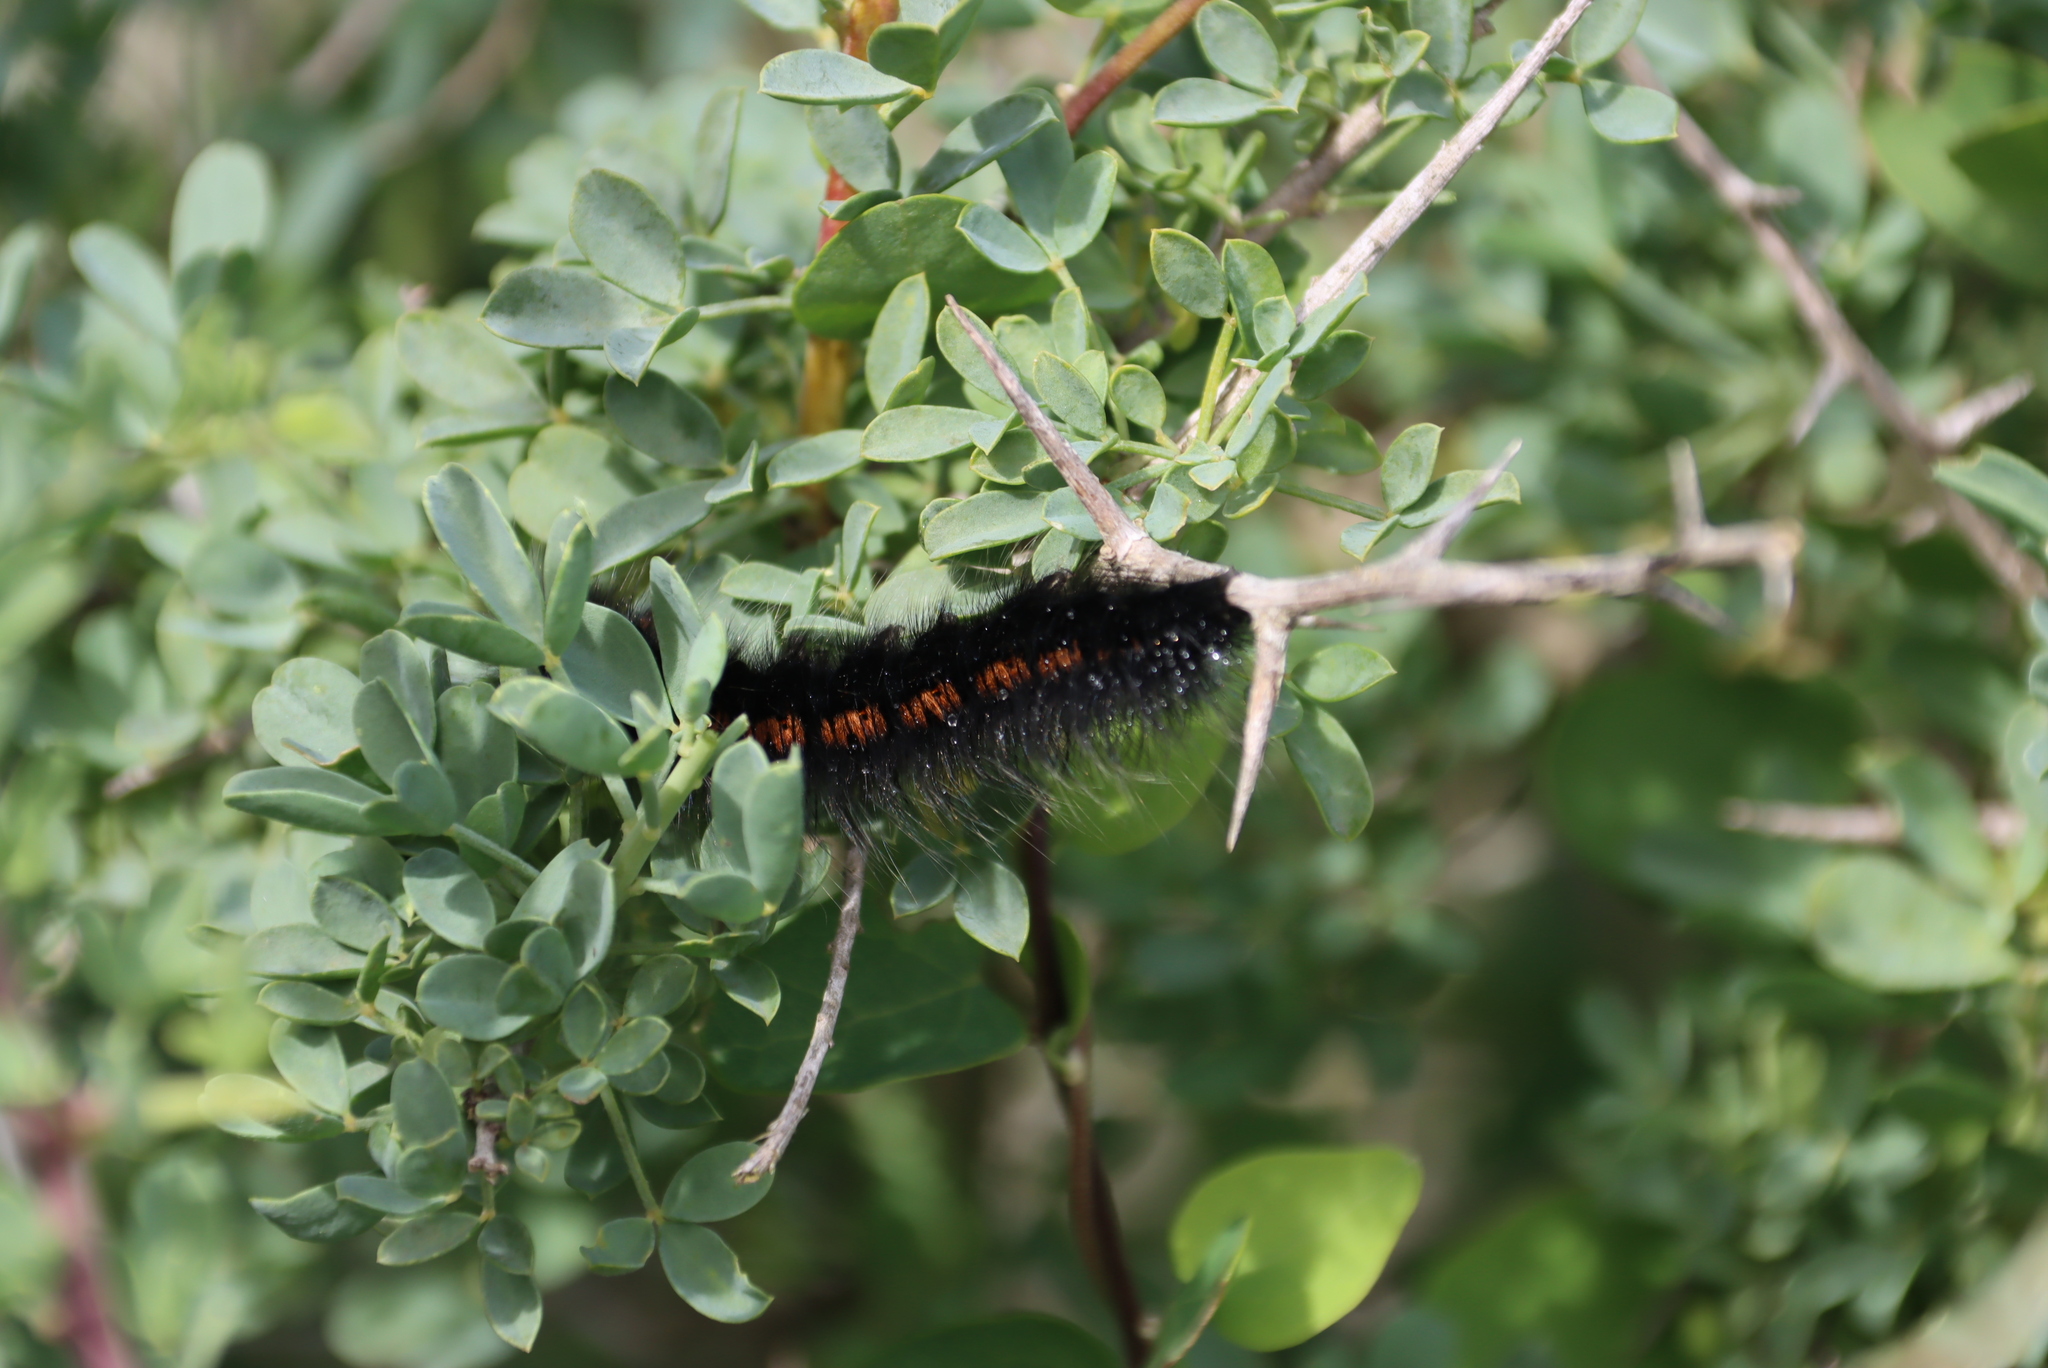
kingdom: Animalia
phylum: Arthropoda
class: Insecta
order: Lepidoptera
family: Lasiocampidae
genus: Mesocelis
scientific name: Mesocelis monticola
